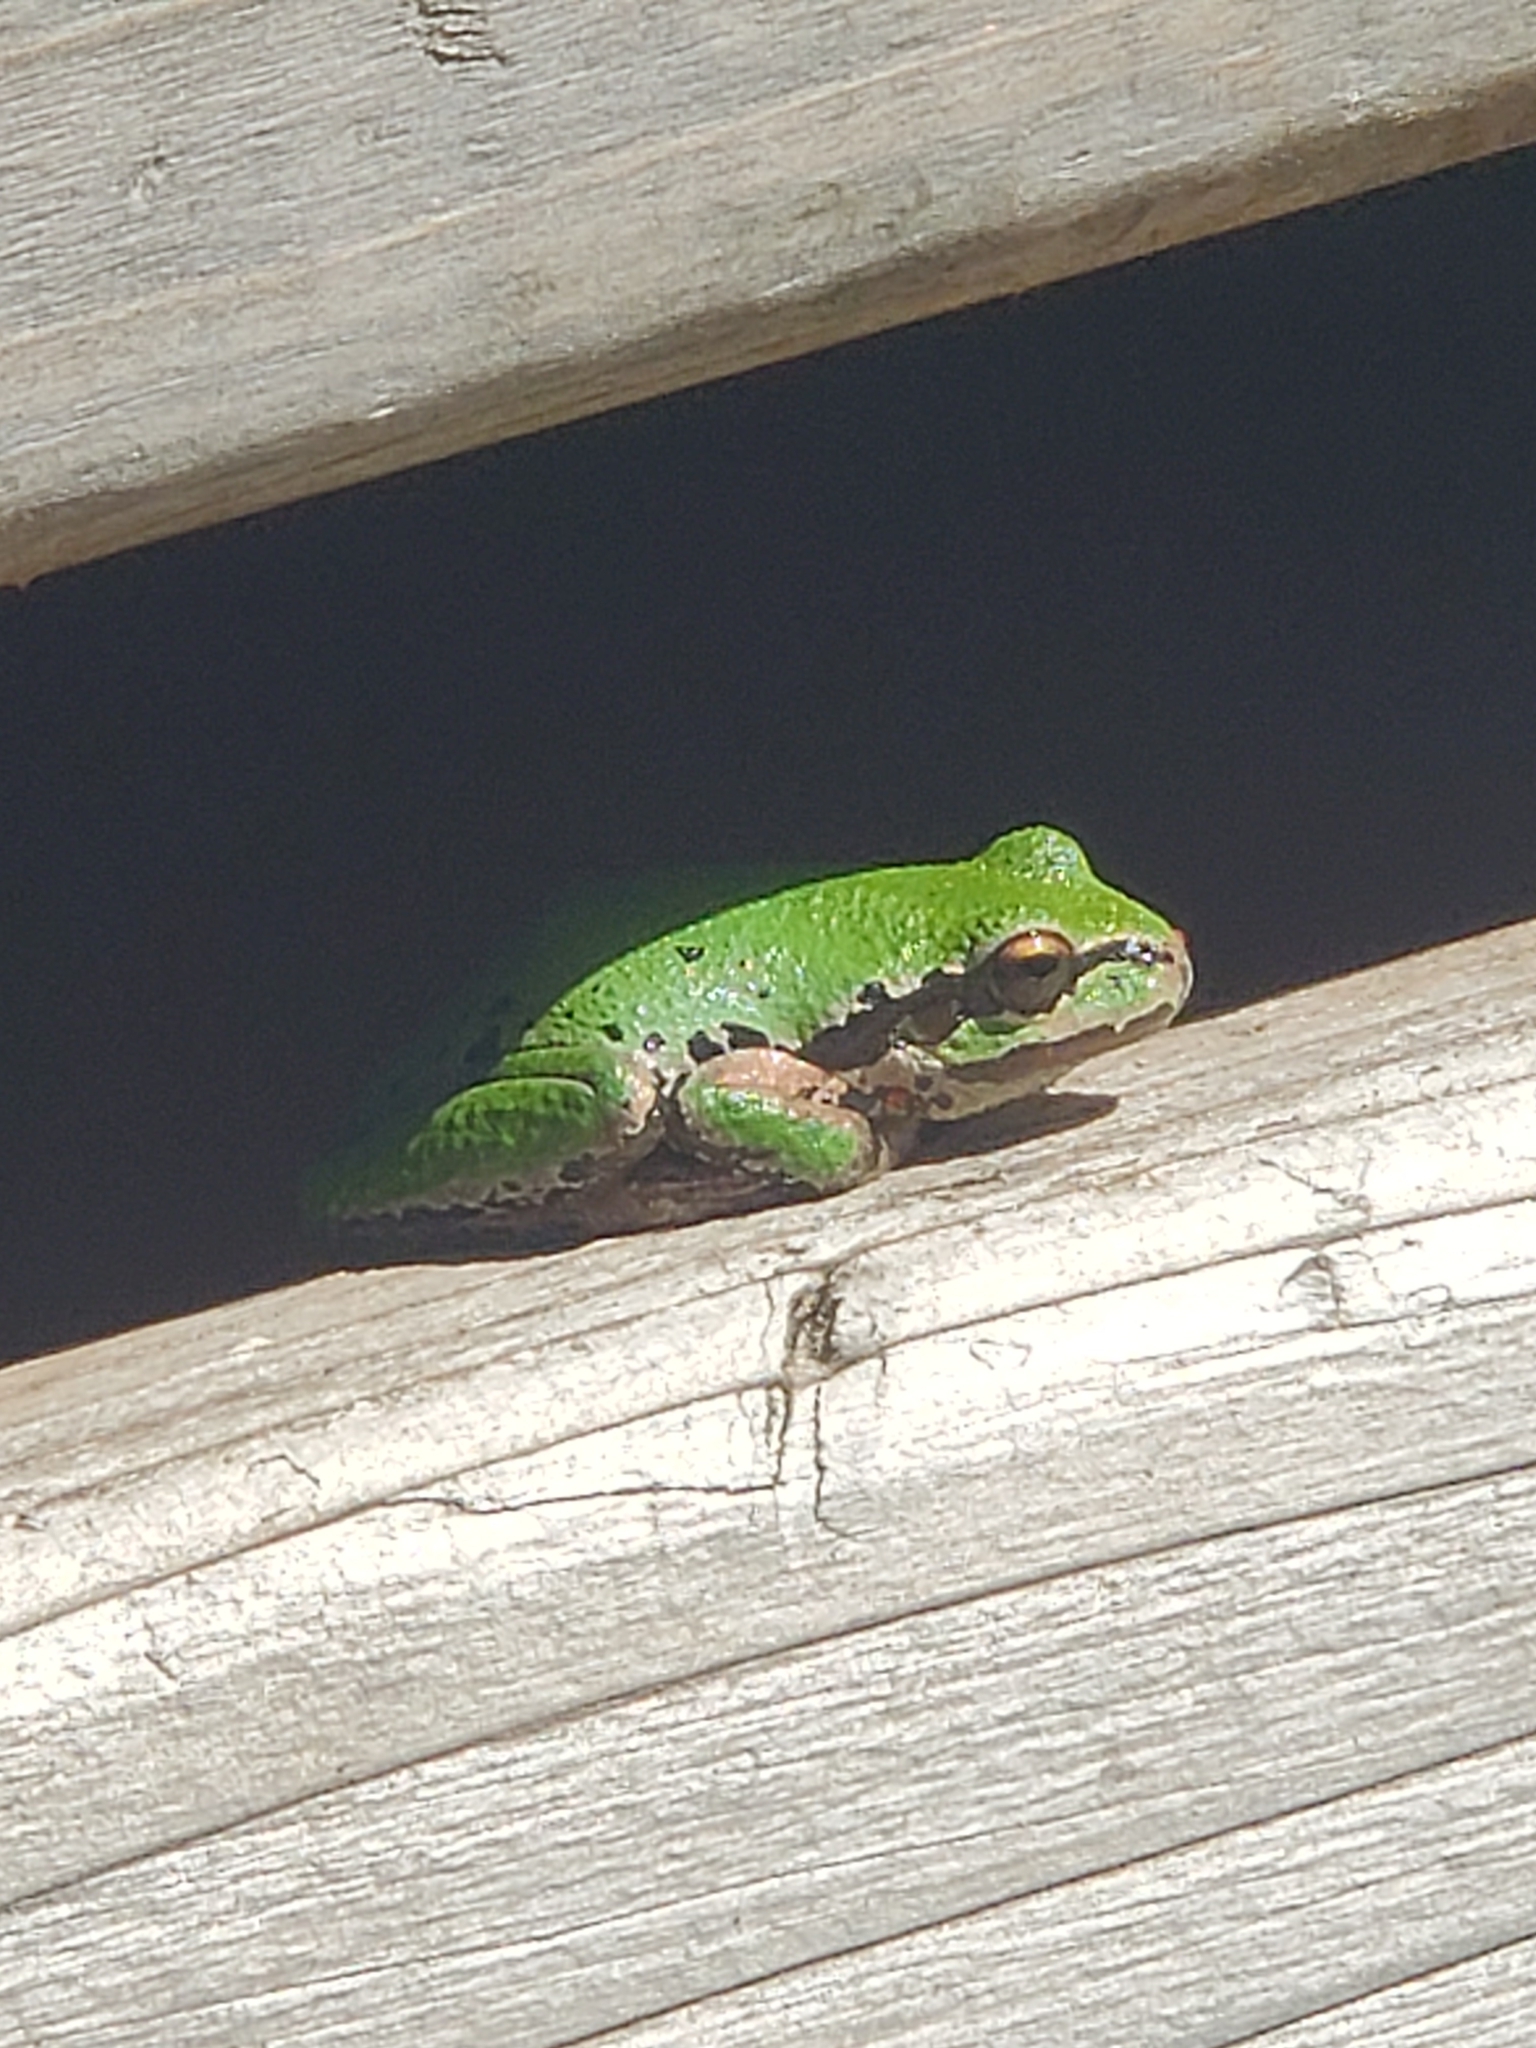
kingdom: Animalia
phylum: Chordata
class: Amphibia
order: Anura
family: Hylidae
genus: Pseudacris
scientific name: Pseudacris regilla
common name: Pacific chorus frog
